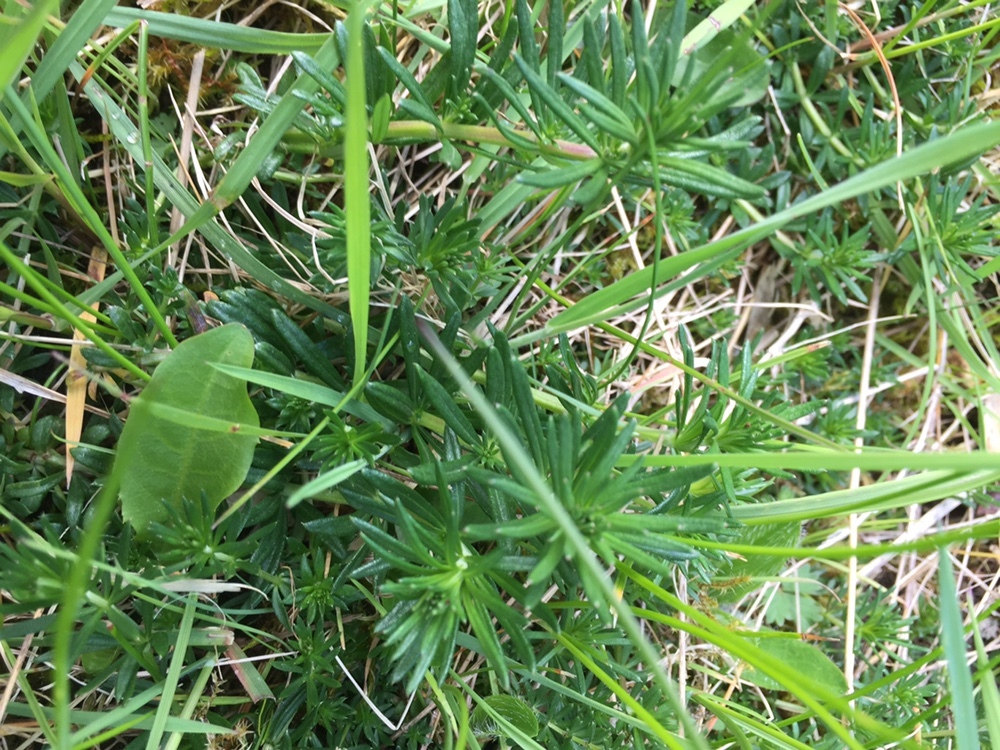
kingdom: Plantae
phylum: Tracheophyta
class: Magnoliopsida
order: Gentianales
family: Rubiaceae
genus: Galium
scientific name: Galium verum
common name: Lady's bedstraw
